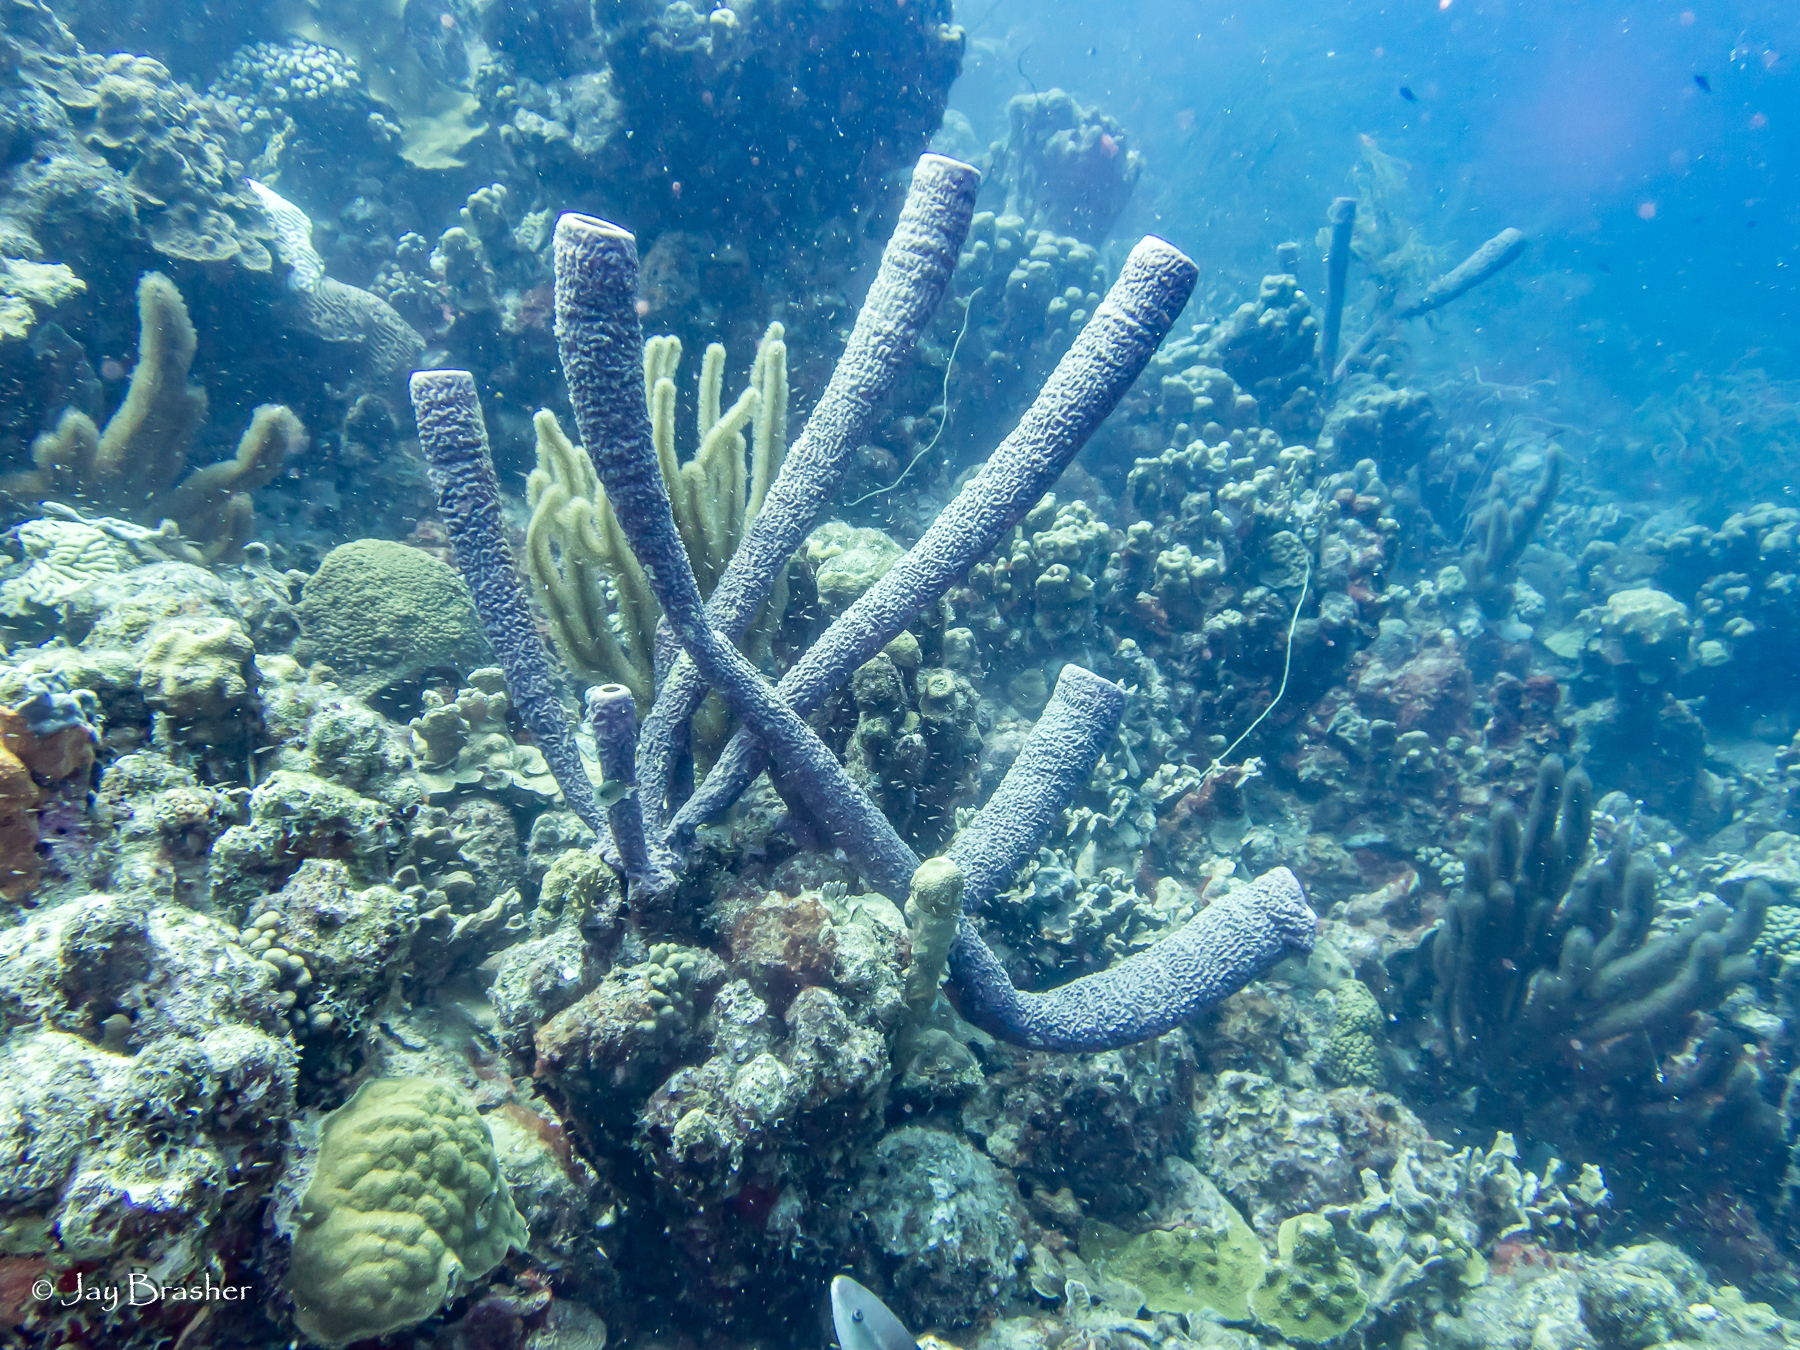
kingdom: Animalia
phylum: Cnidaria
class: Anthozoa
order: Scleractinia
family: Poritidae
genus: Porites
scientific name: Porites astreoides
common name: Mustard hill coral
